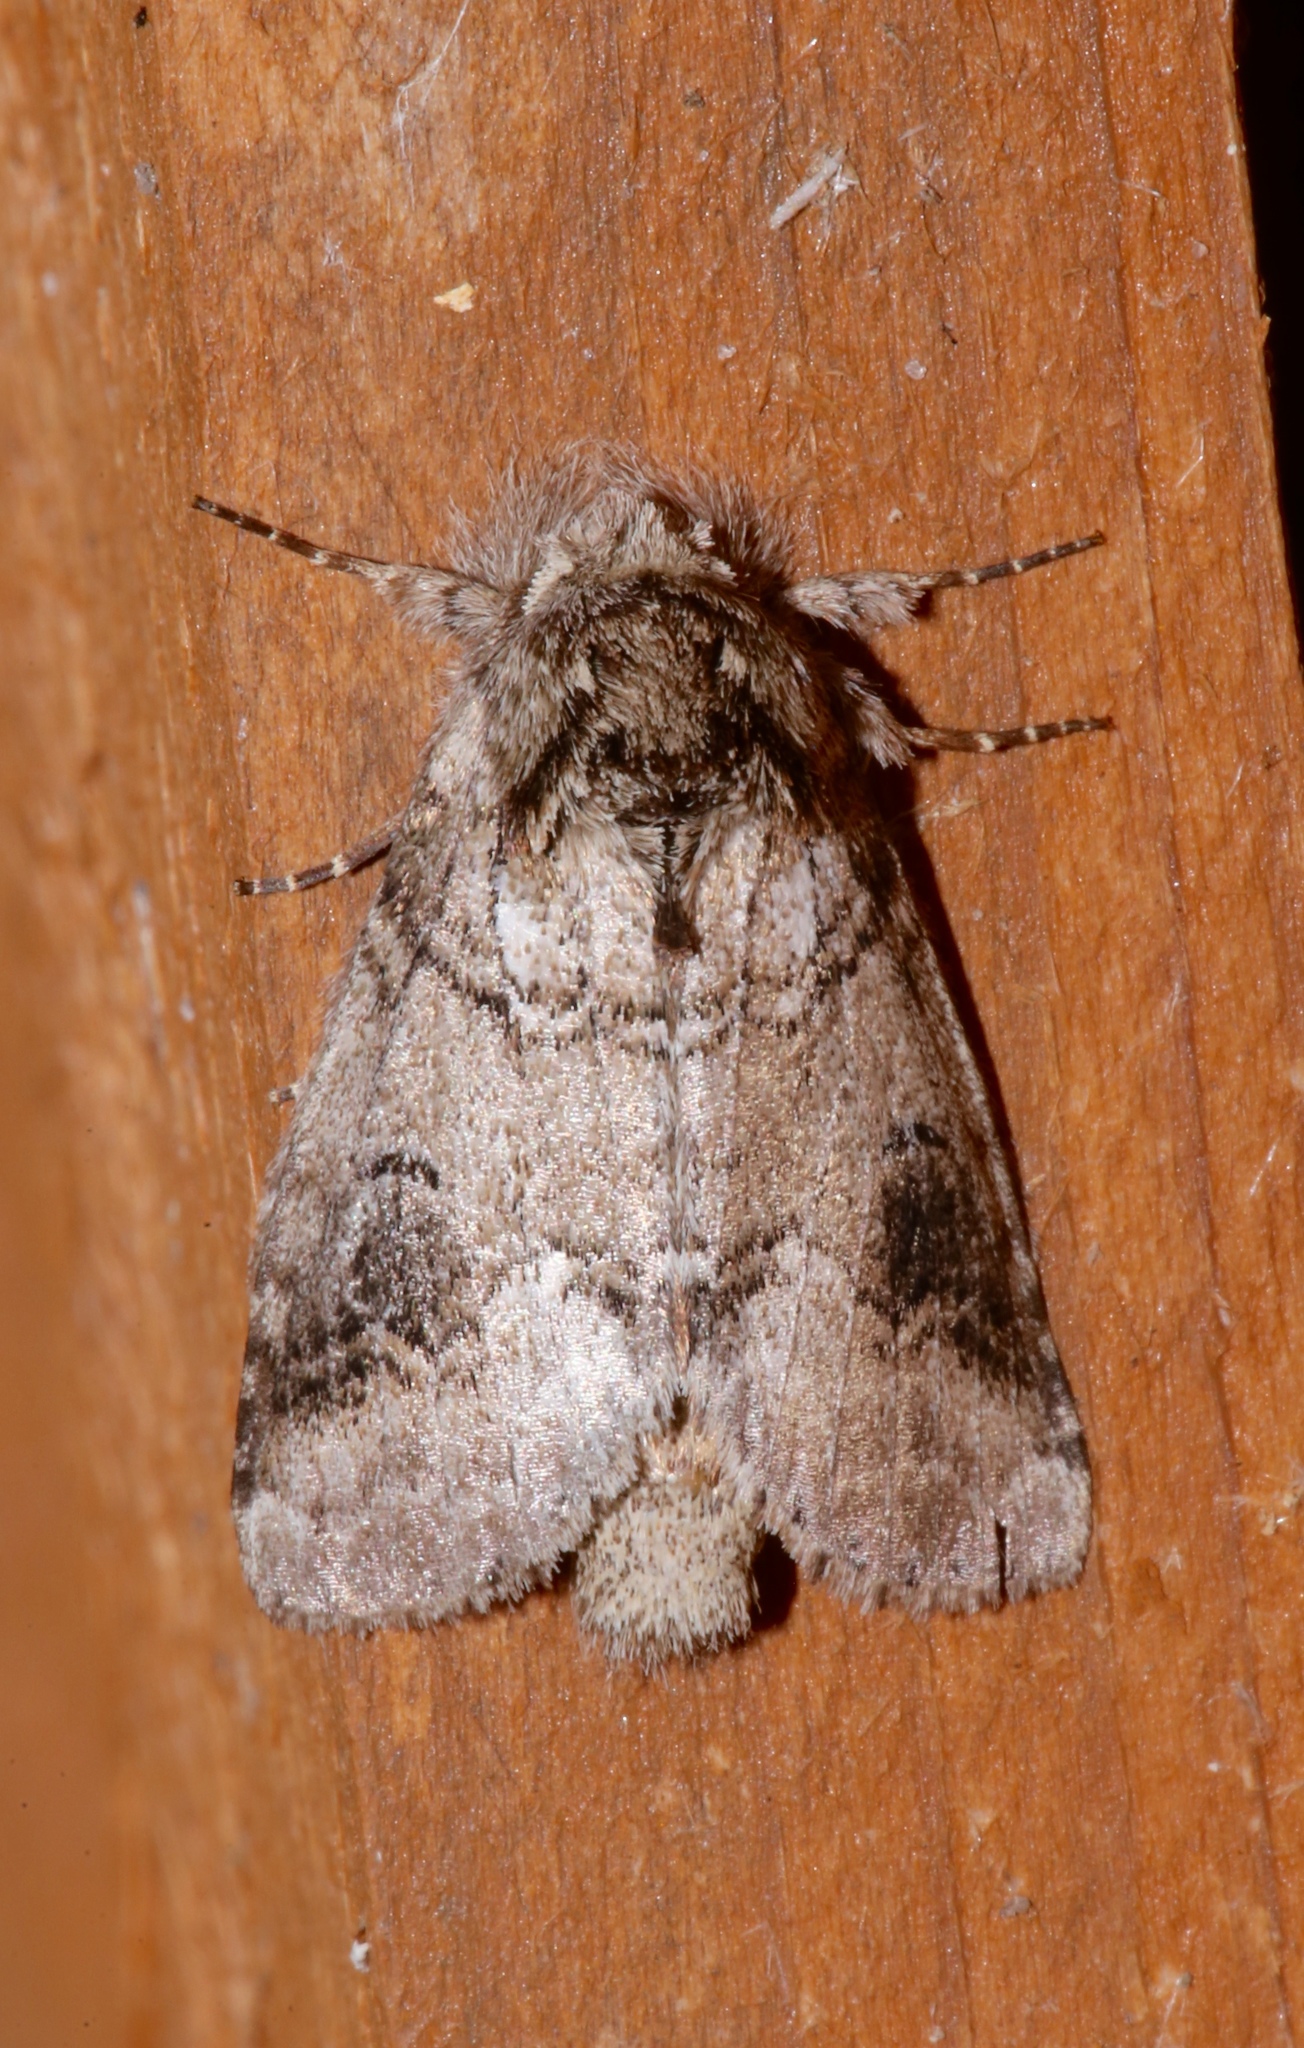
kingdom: Animalia
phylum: Arthropoda
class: Insecta
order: Lepidoptera
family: Notodontidae
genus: Lochmaeus
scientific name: Lochmaeus bilineata
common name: Double-lined prominent
